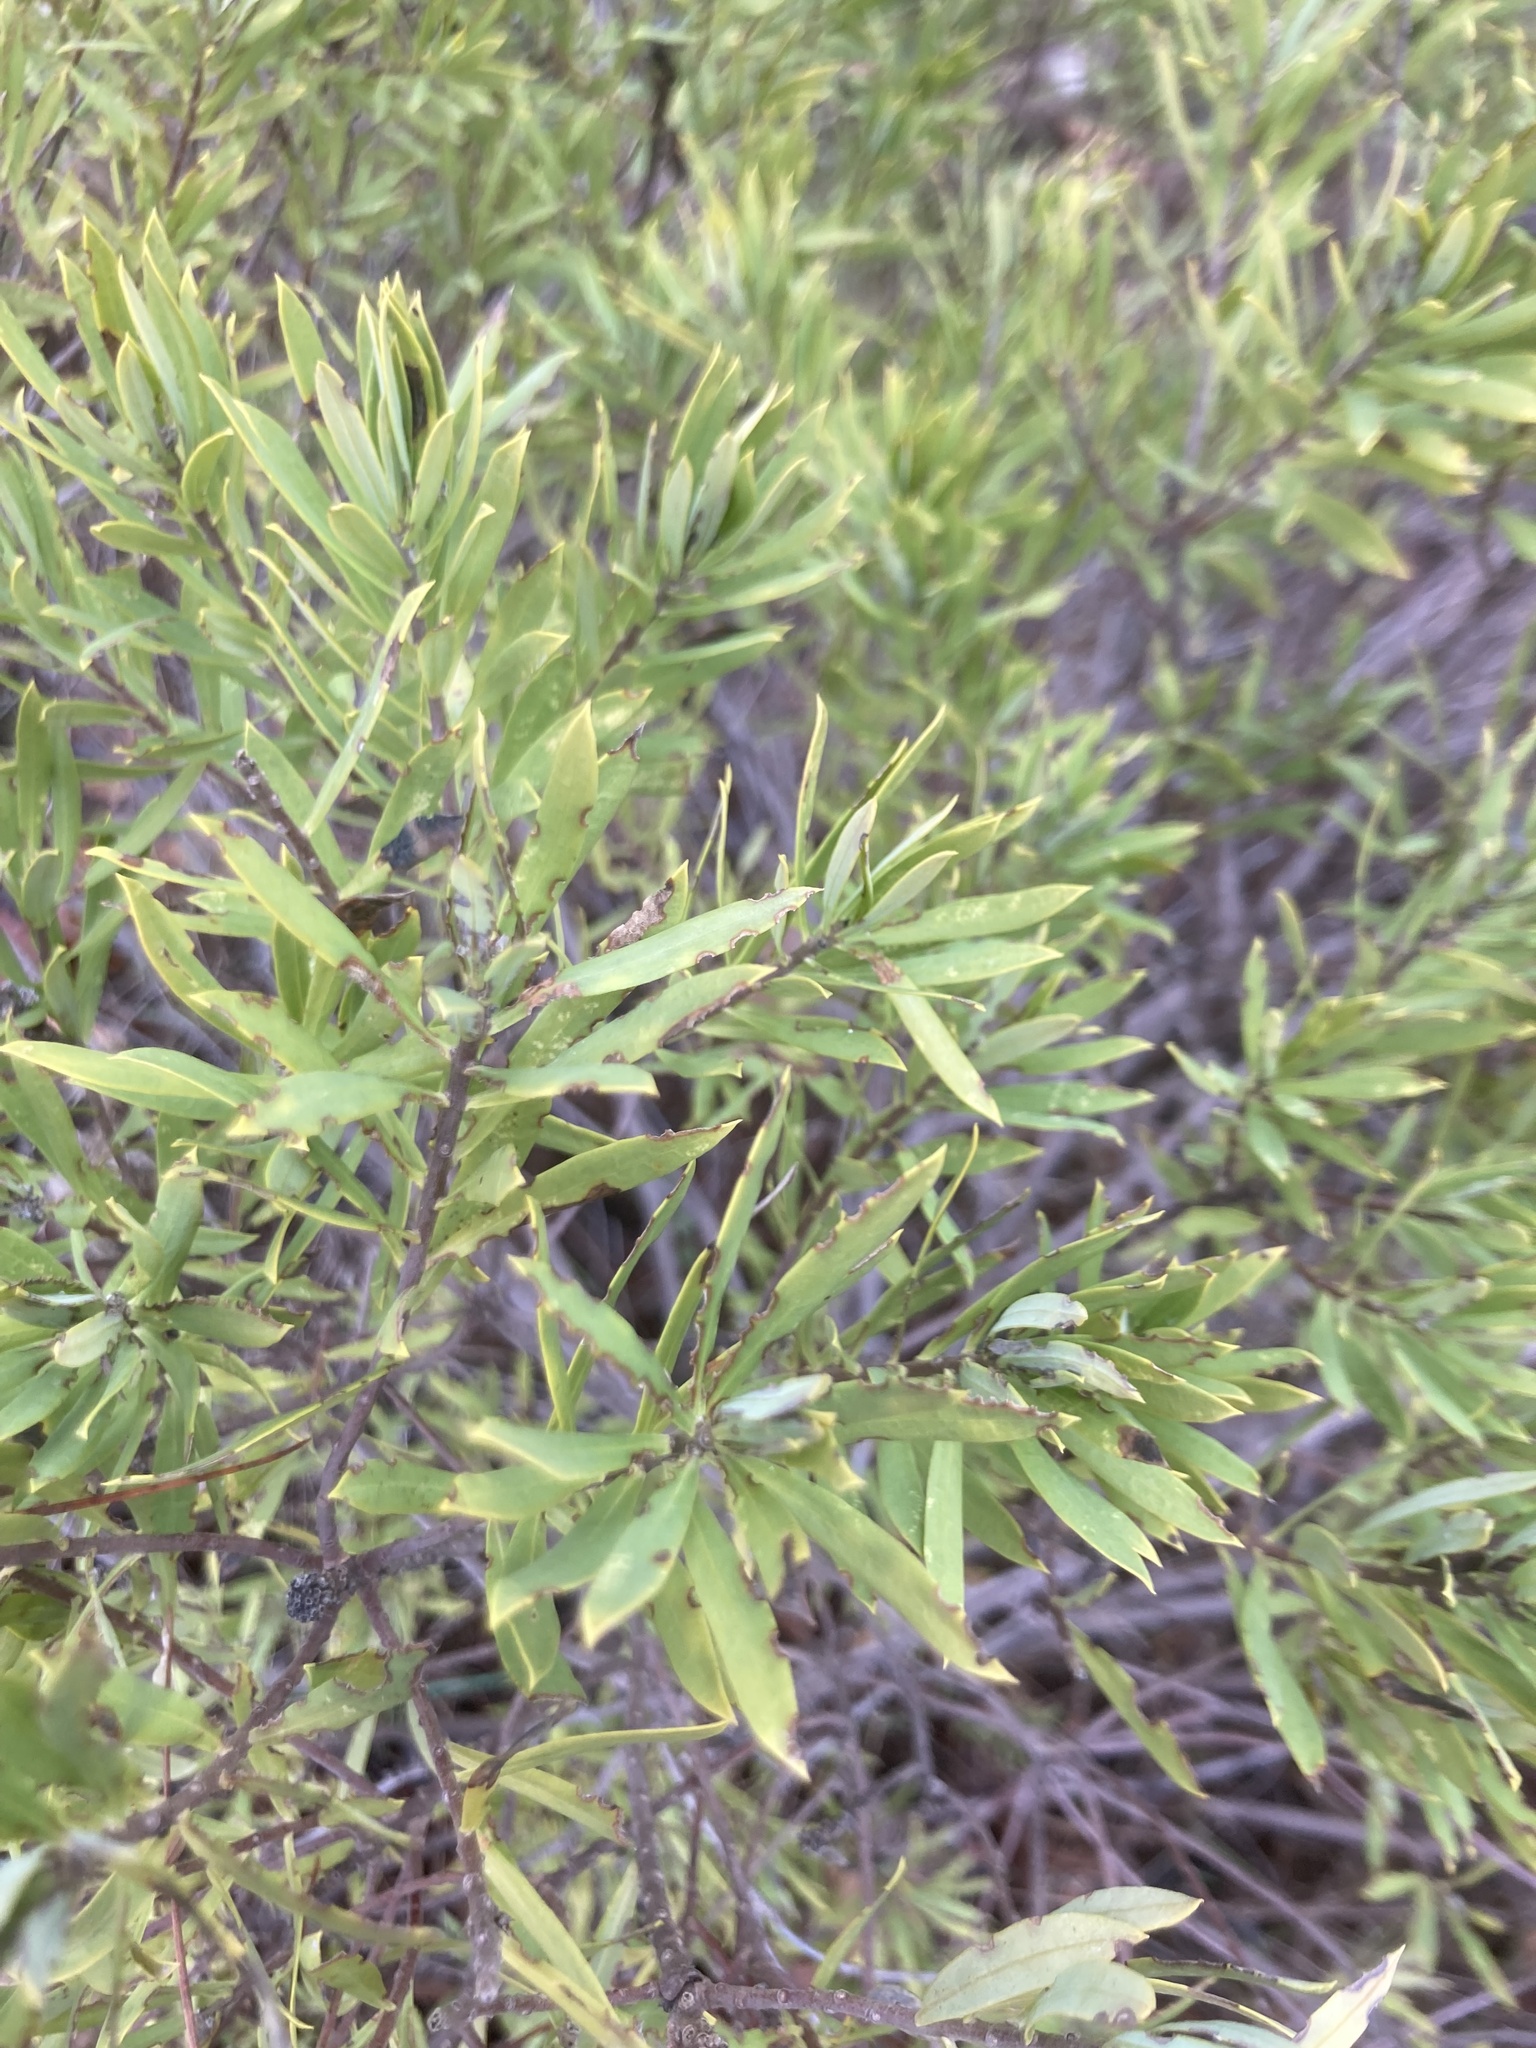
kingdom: Plantae
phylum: Tracheophyta
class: Magnoliopsida
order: Malvales
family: Thymelaeaceae
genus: Daphne
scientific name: Daphne gnidium
